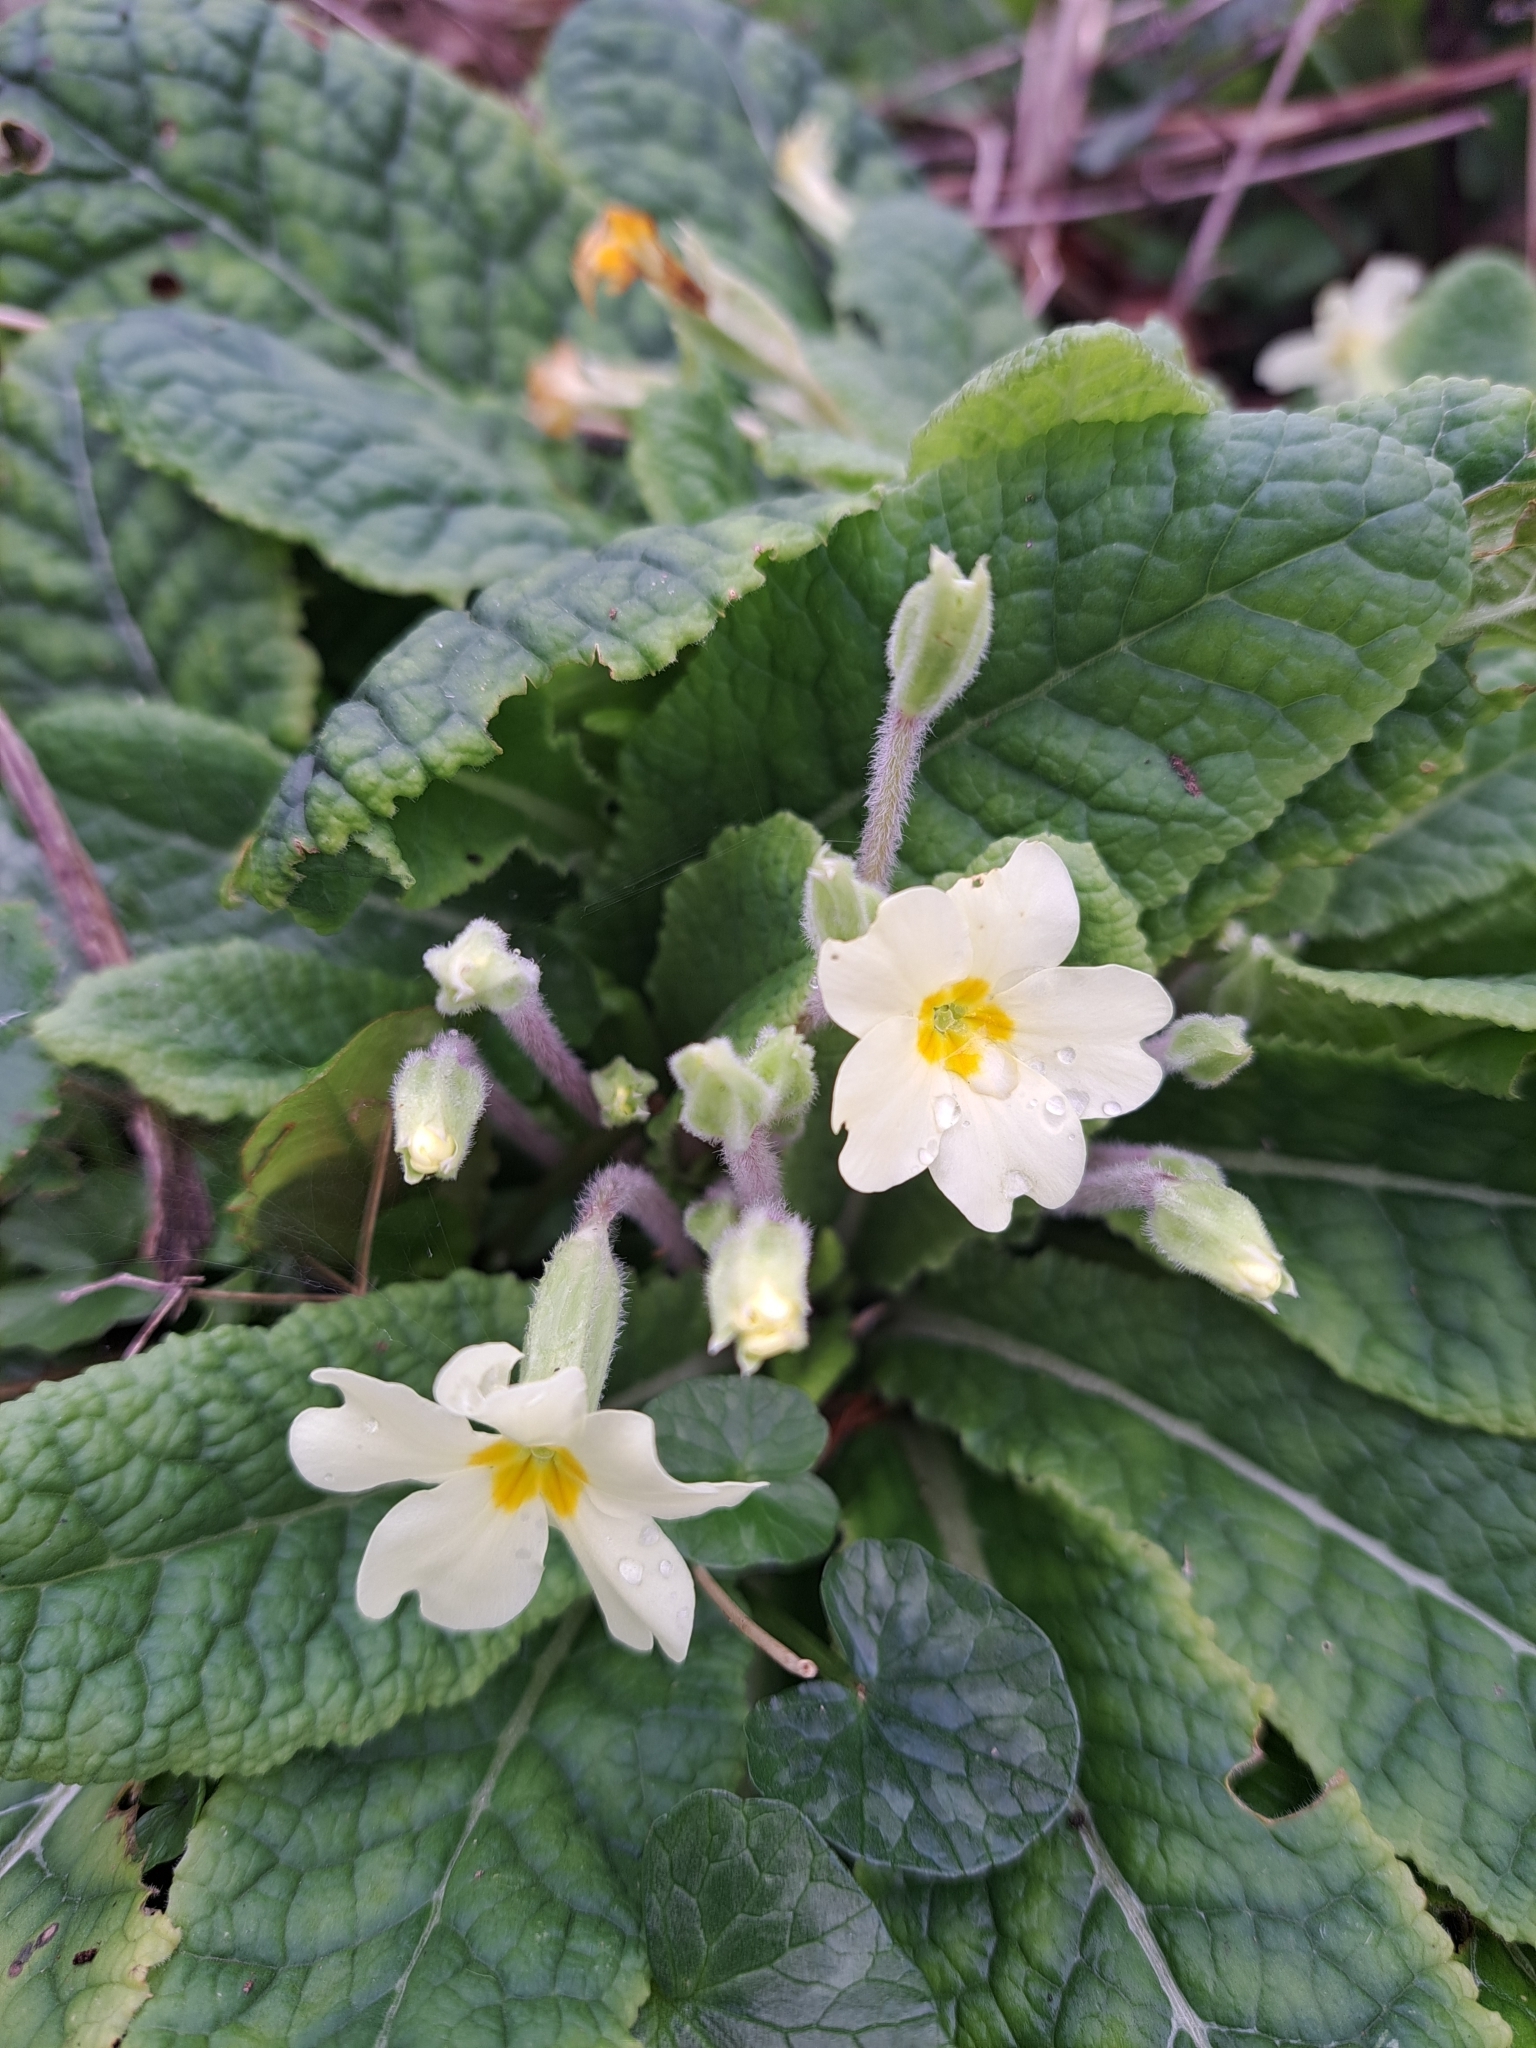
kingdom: Plantae
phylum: Tracheophyta
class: Magnoliopsida
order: Ericales
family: Primulaceae
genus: Primula
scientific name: Primula vulgaris
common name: Primrose
